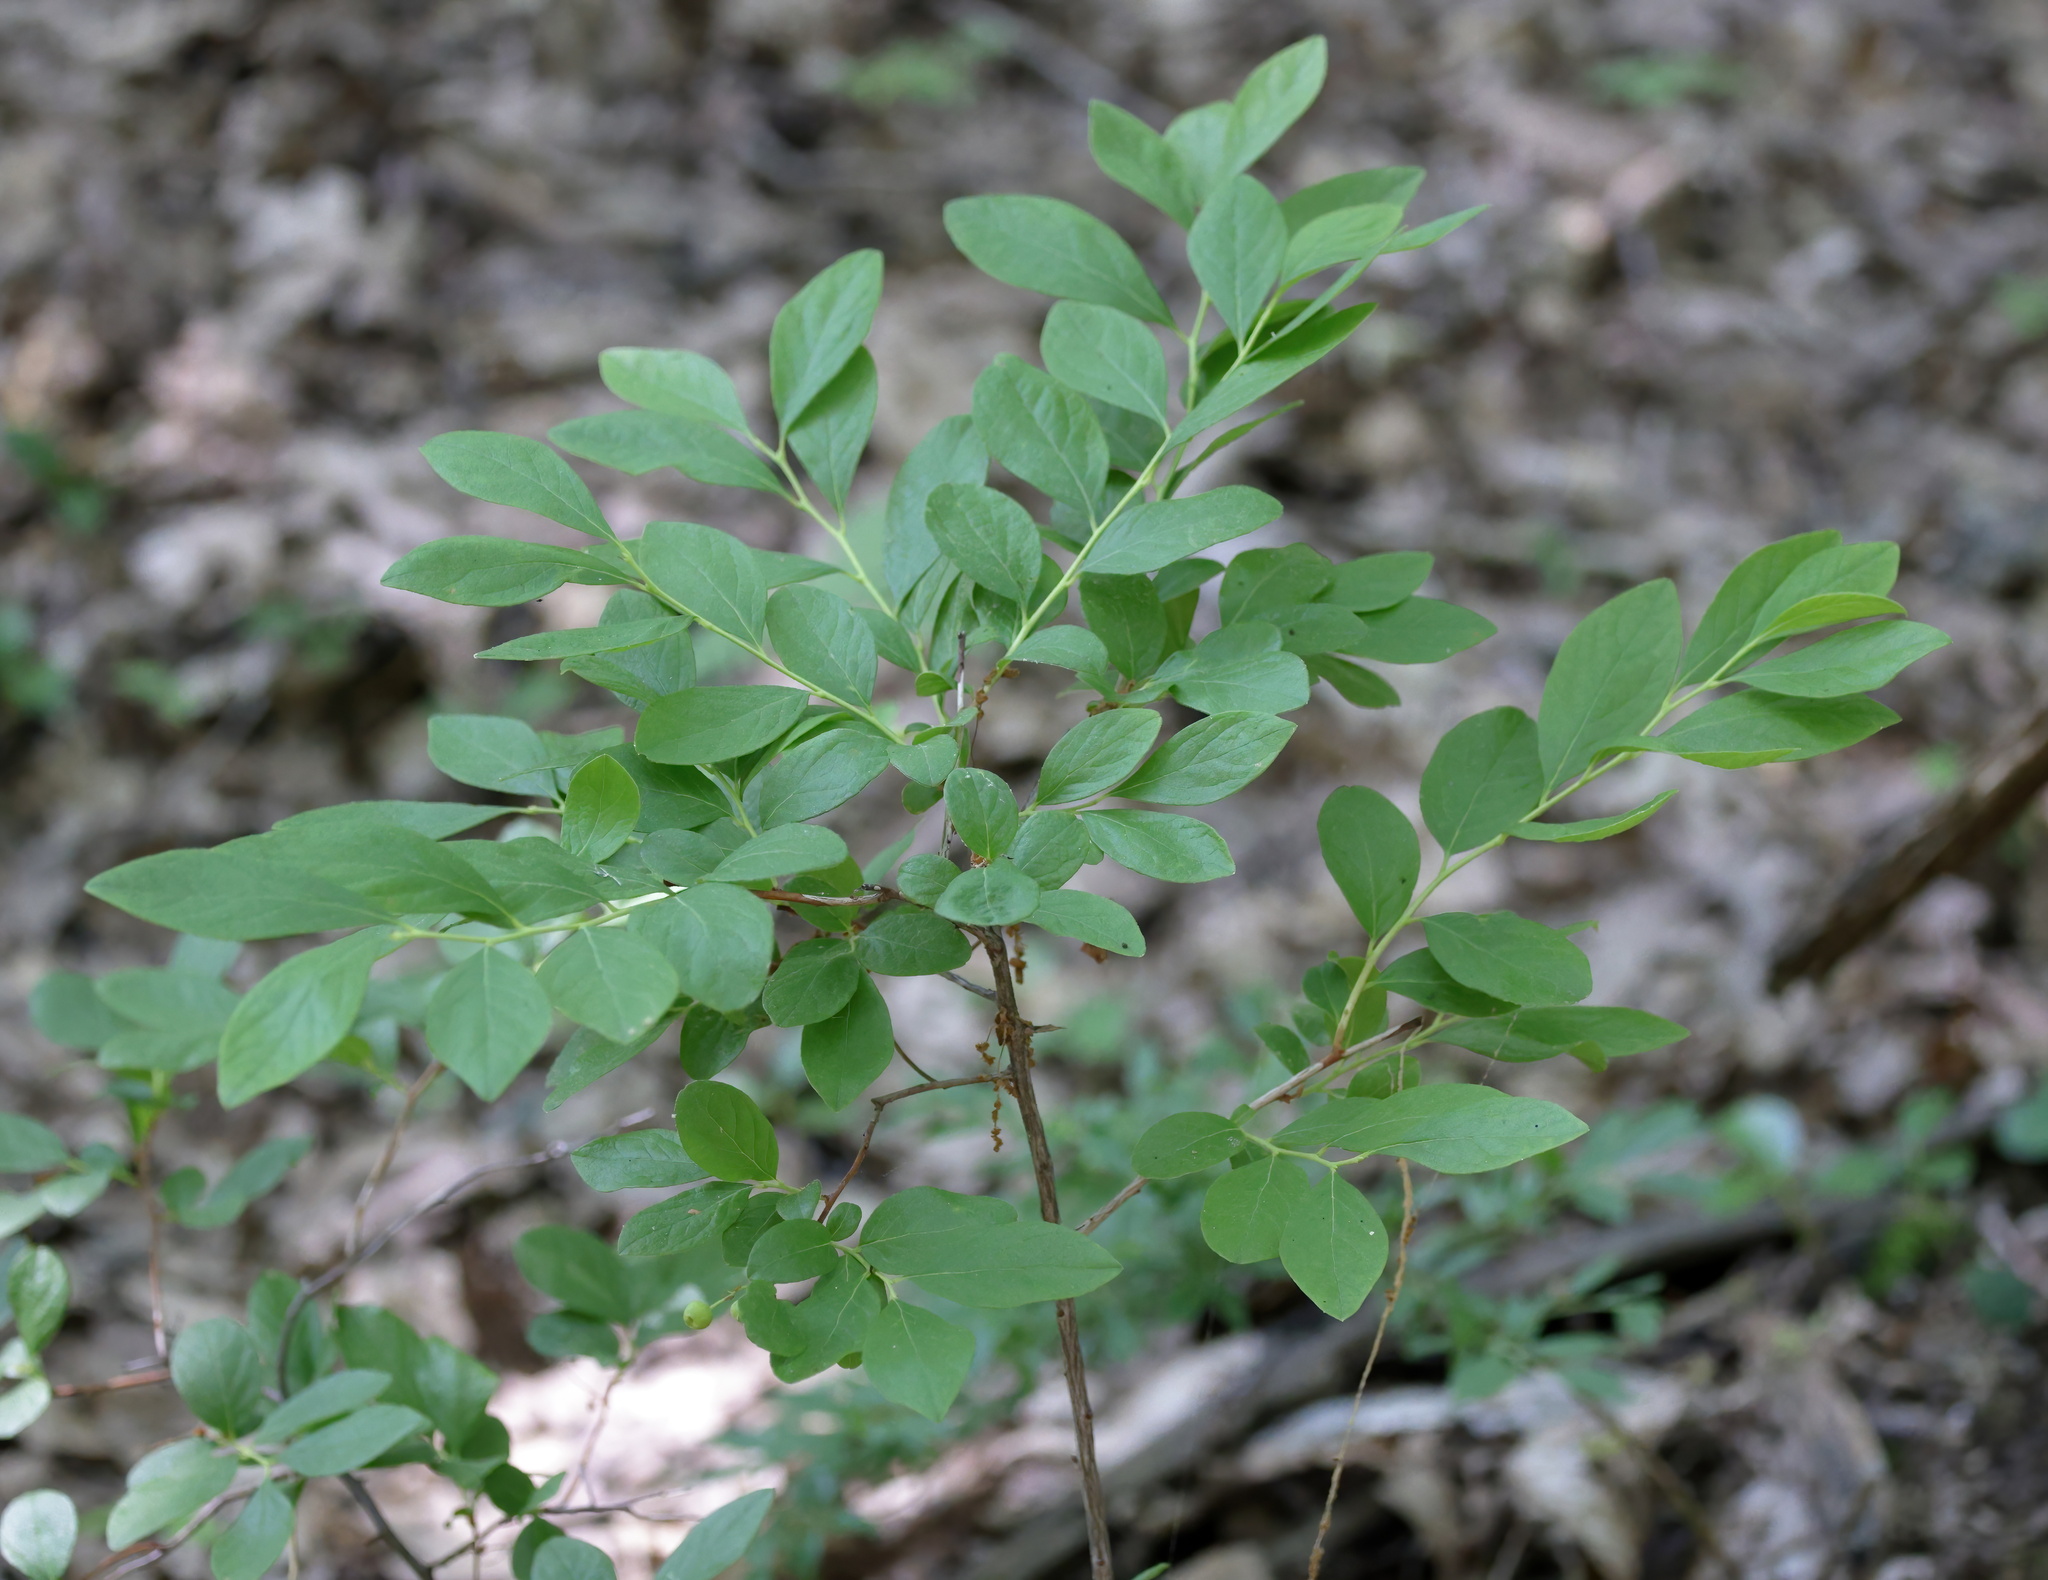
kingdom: Plantae
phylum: Tracheophyta
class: Magnoliopsida
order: Ericales
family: Ericaceae
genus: Gaylussacia
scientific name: Gaylussacia baccata
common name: Black huckleberry
